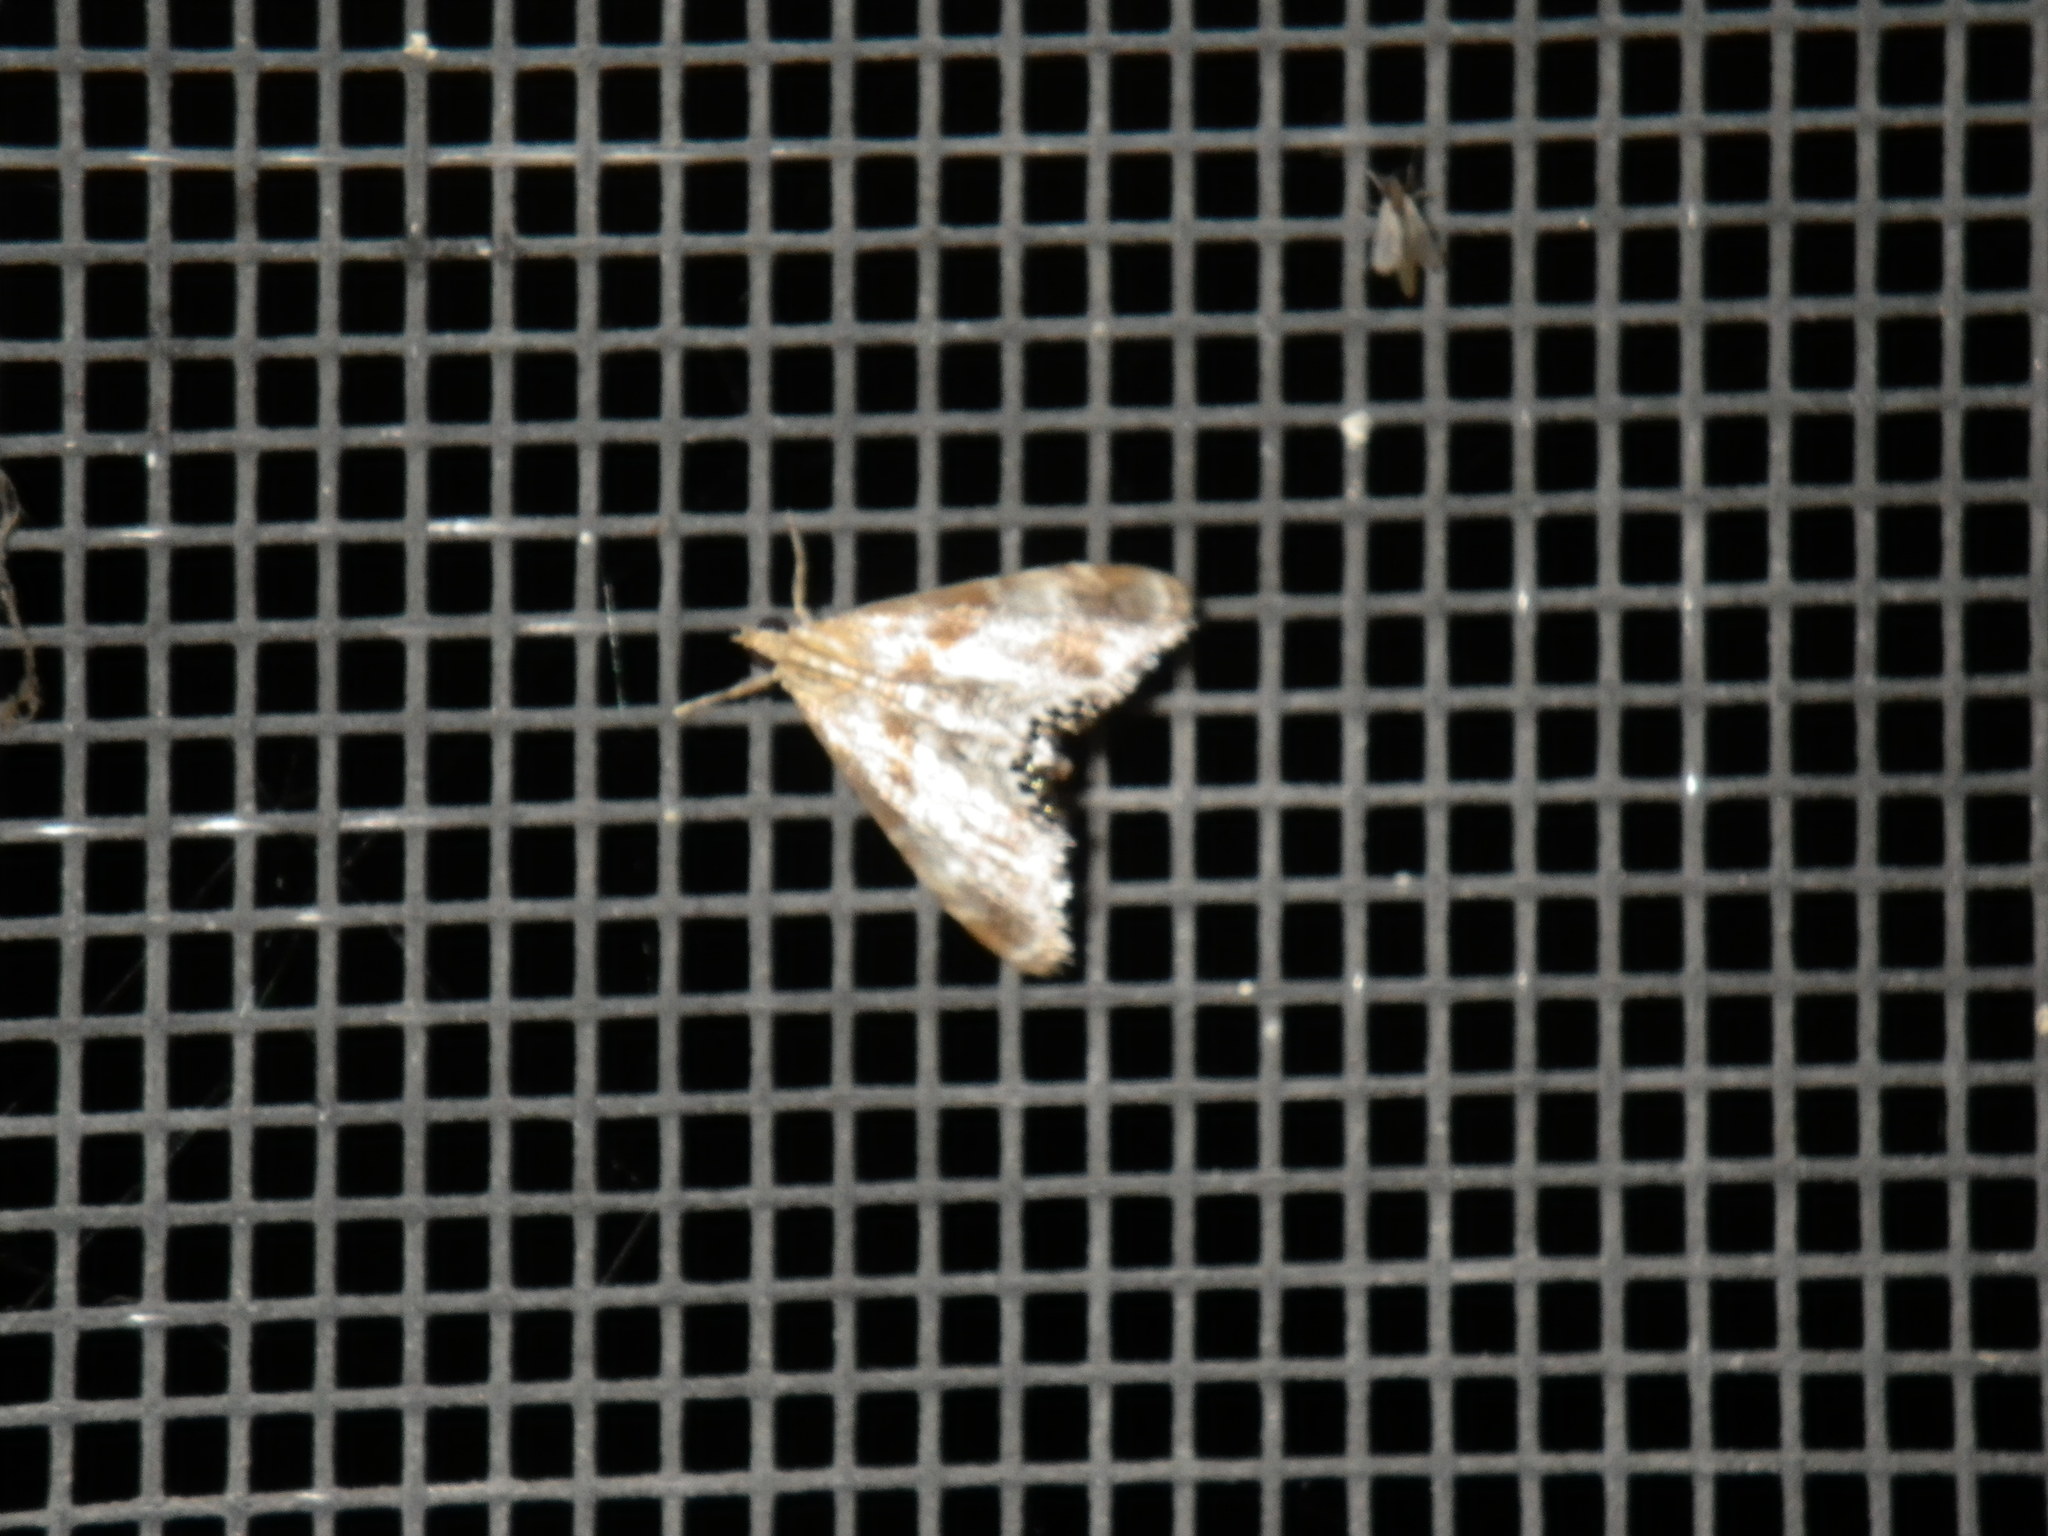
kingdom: Animalia
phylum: Arthropoda
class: Insecta
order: Lepidoptera
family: Crambidae
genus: Dicymolomia
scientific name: Dicymolomia metalliferalis
